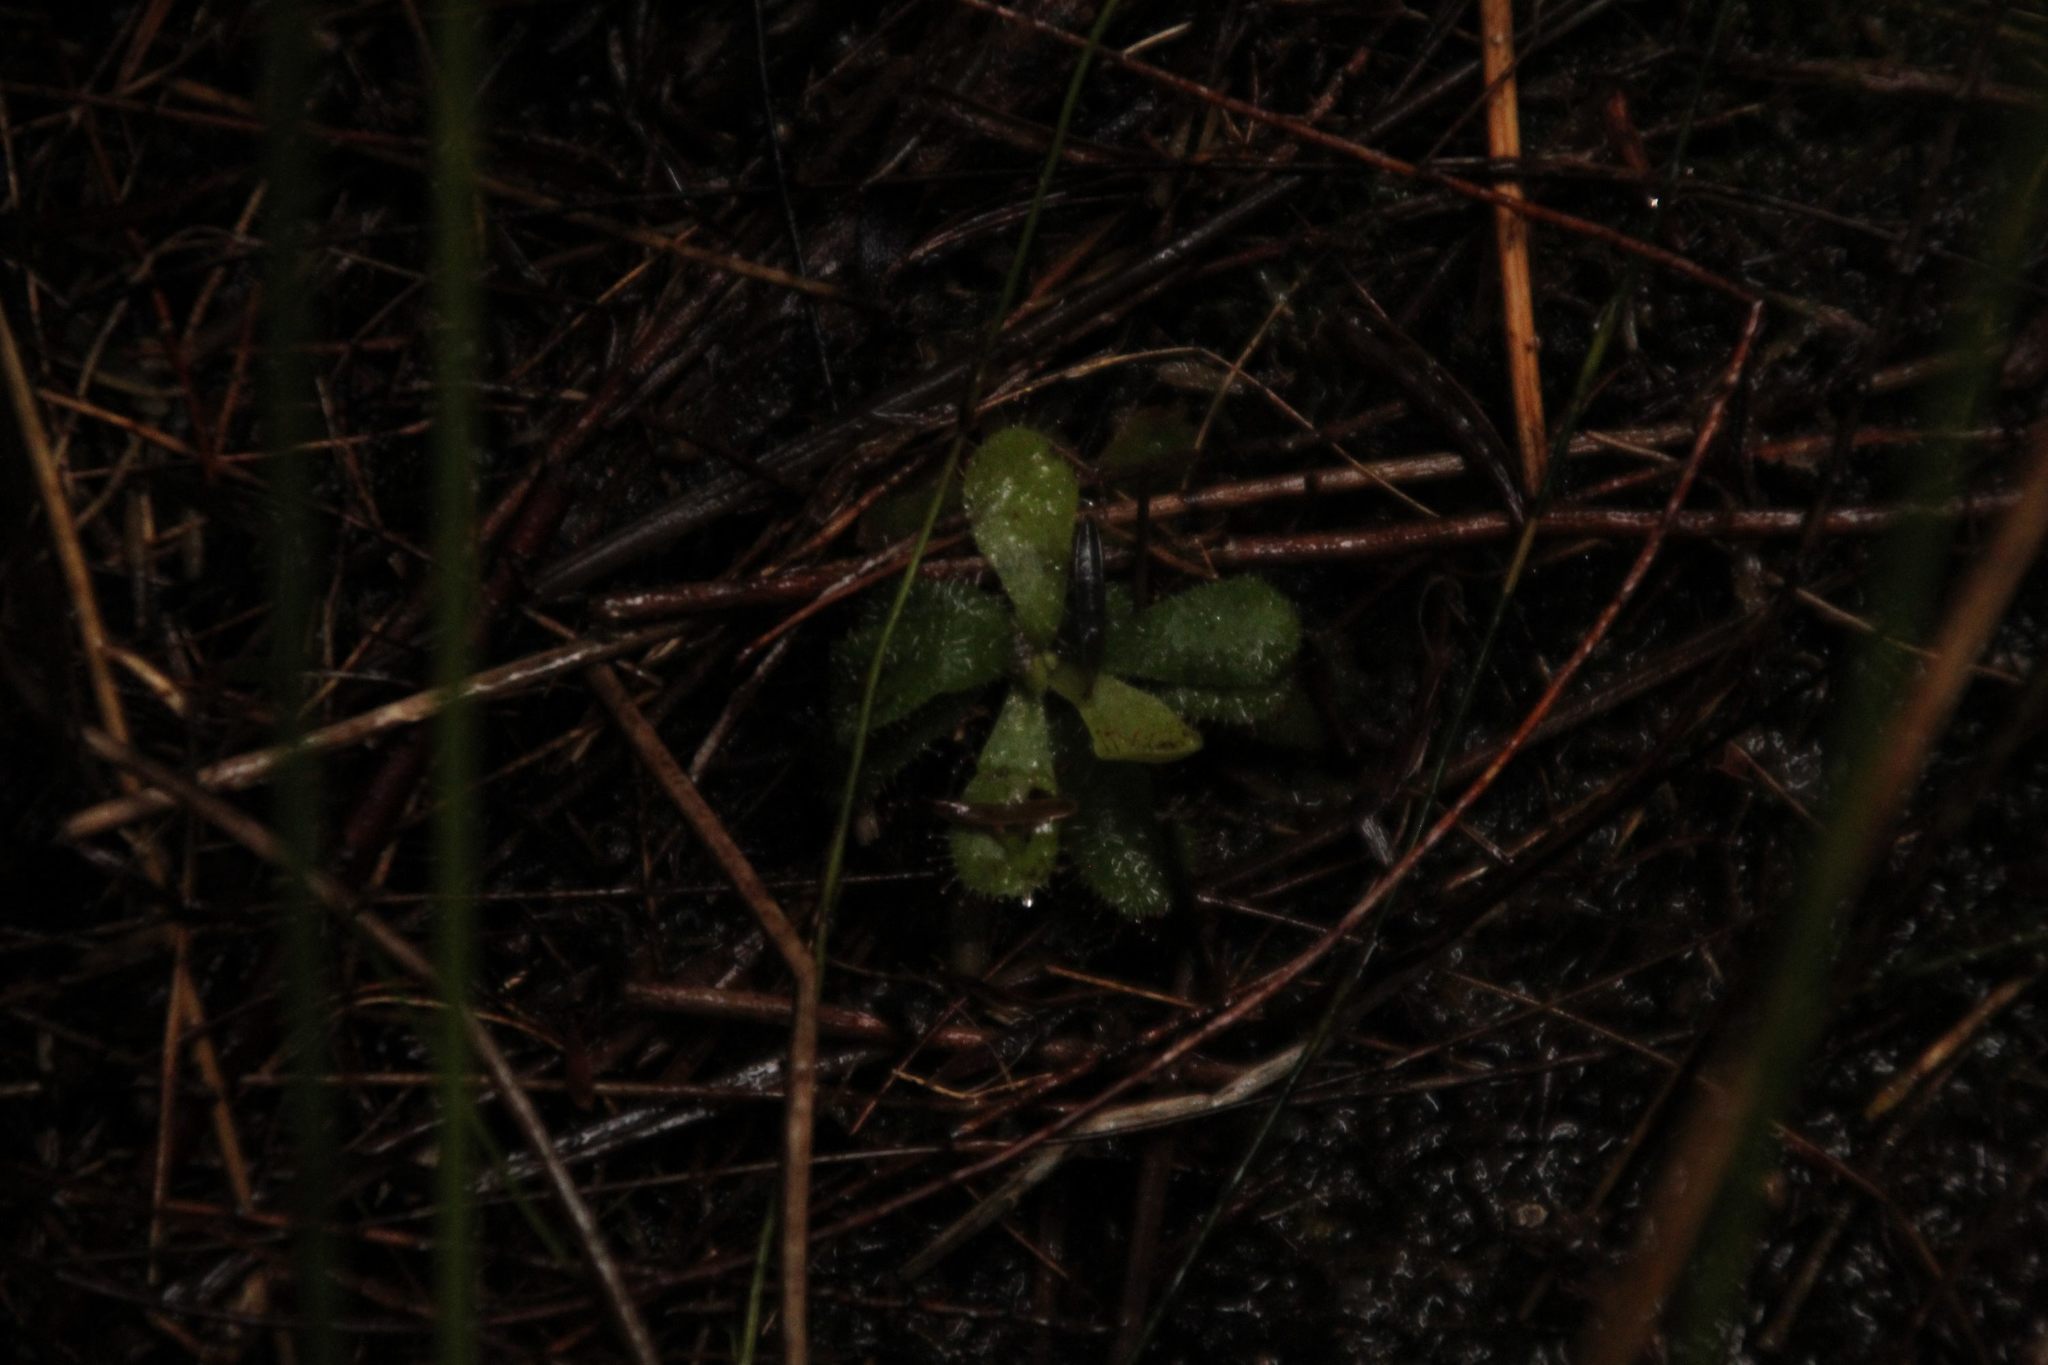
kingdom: Plantae
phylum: Tracheophyta
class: Magnoliopsida
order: Caryophyllales
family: Droseraceae
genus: Drosera
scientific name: Drosera hamiltonii
